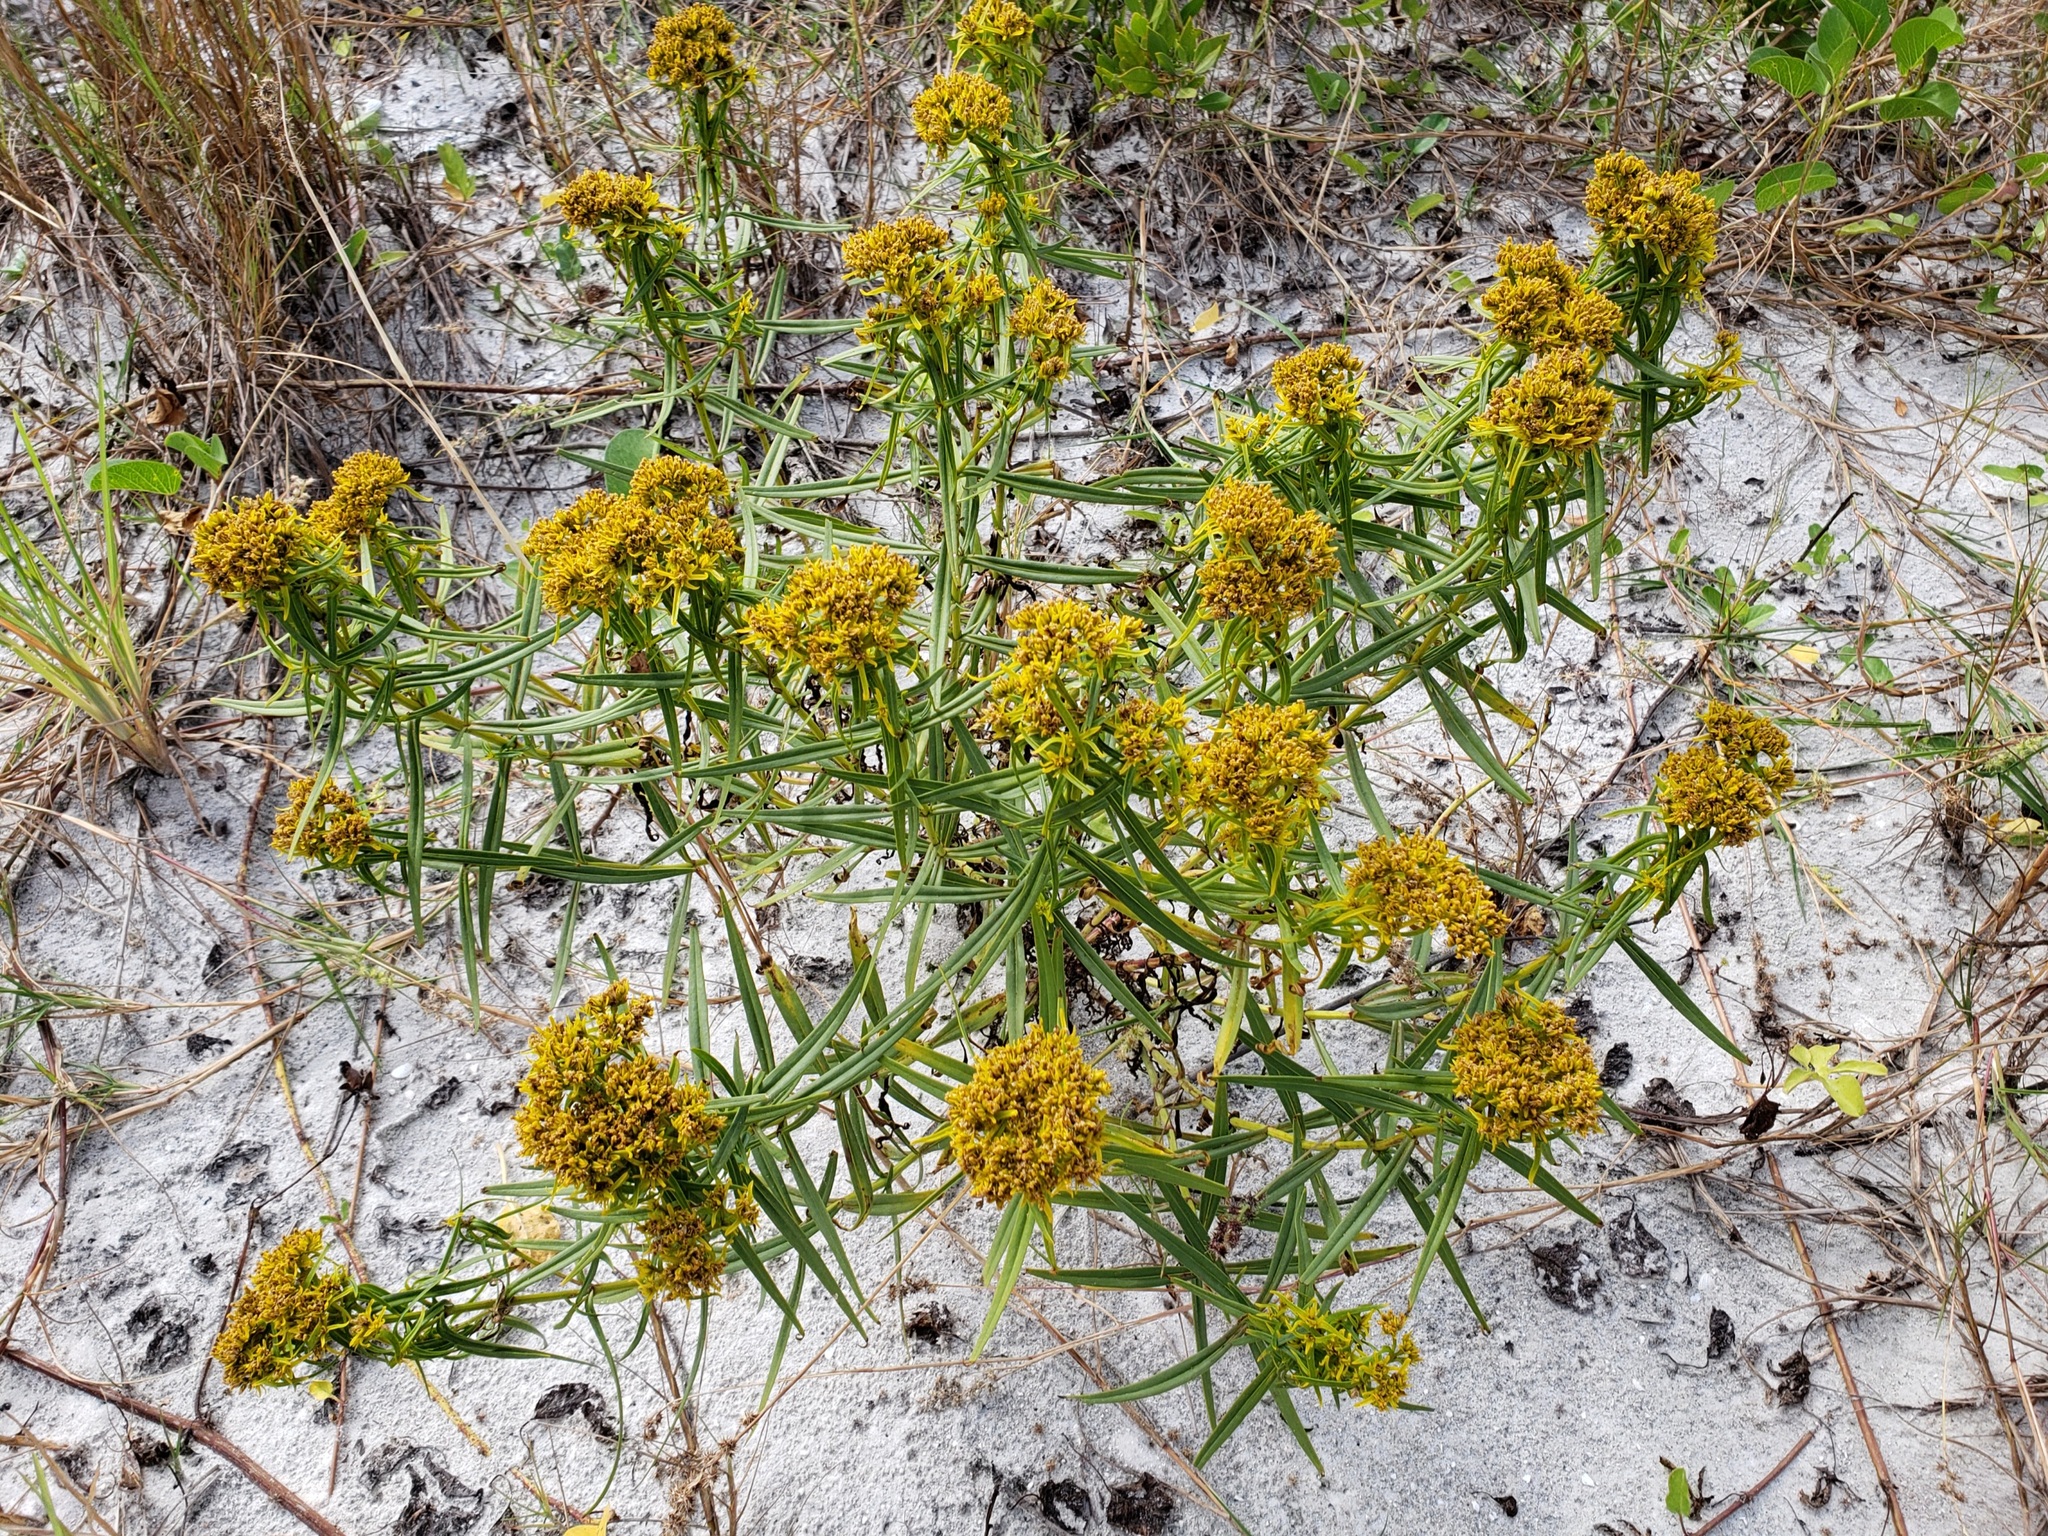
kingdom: Plantae
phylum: Tracheophyta
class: Magnoliopsida
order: Asterales
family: Asteraceae
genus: Flaveria
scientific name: Flaveria linearis
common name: Yellowtop
